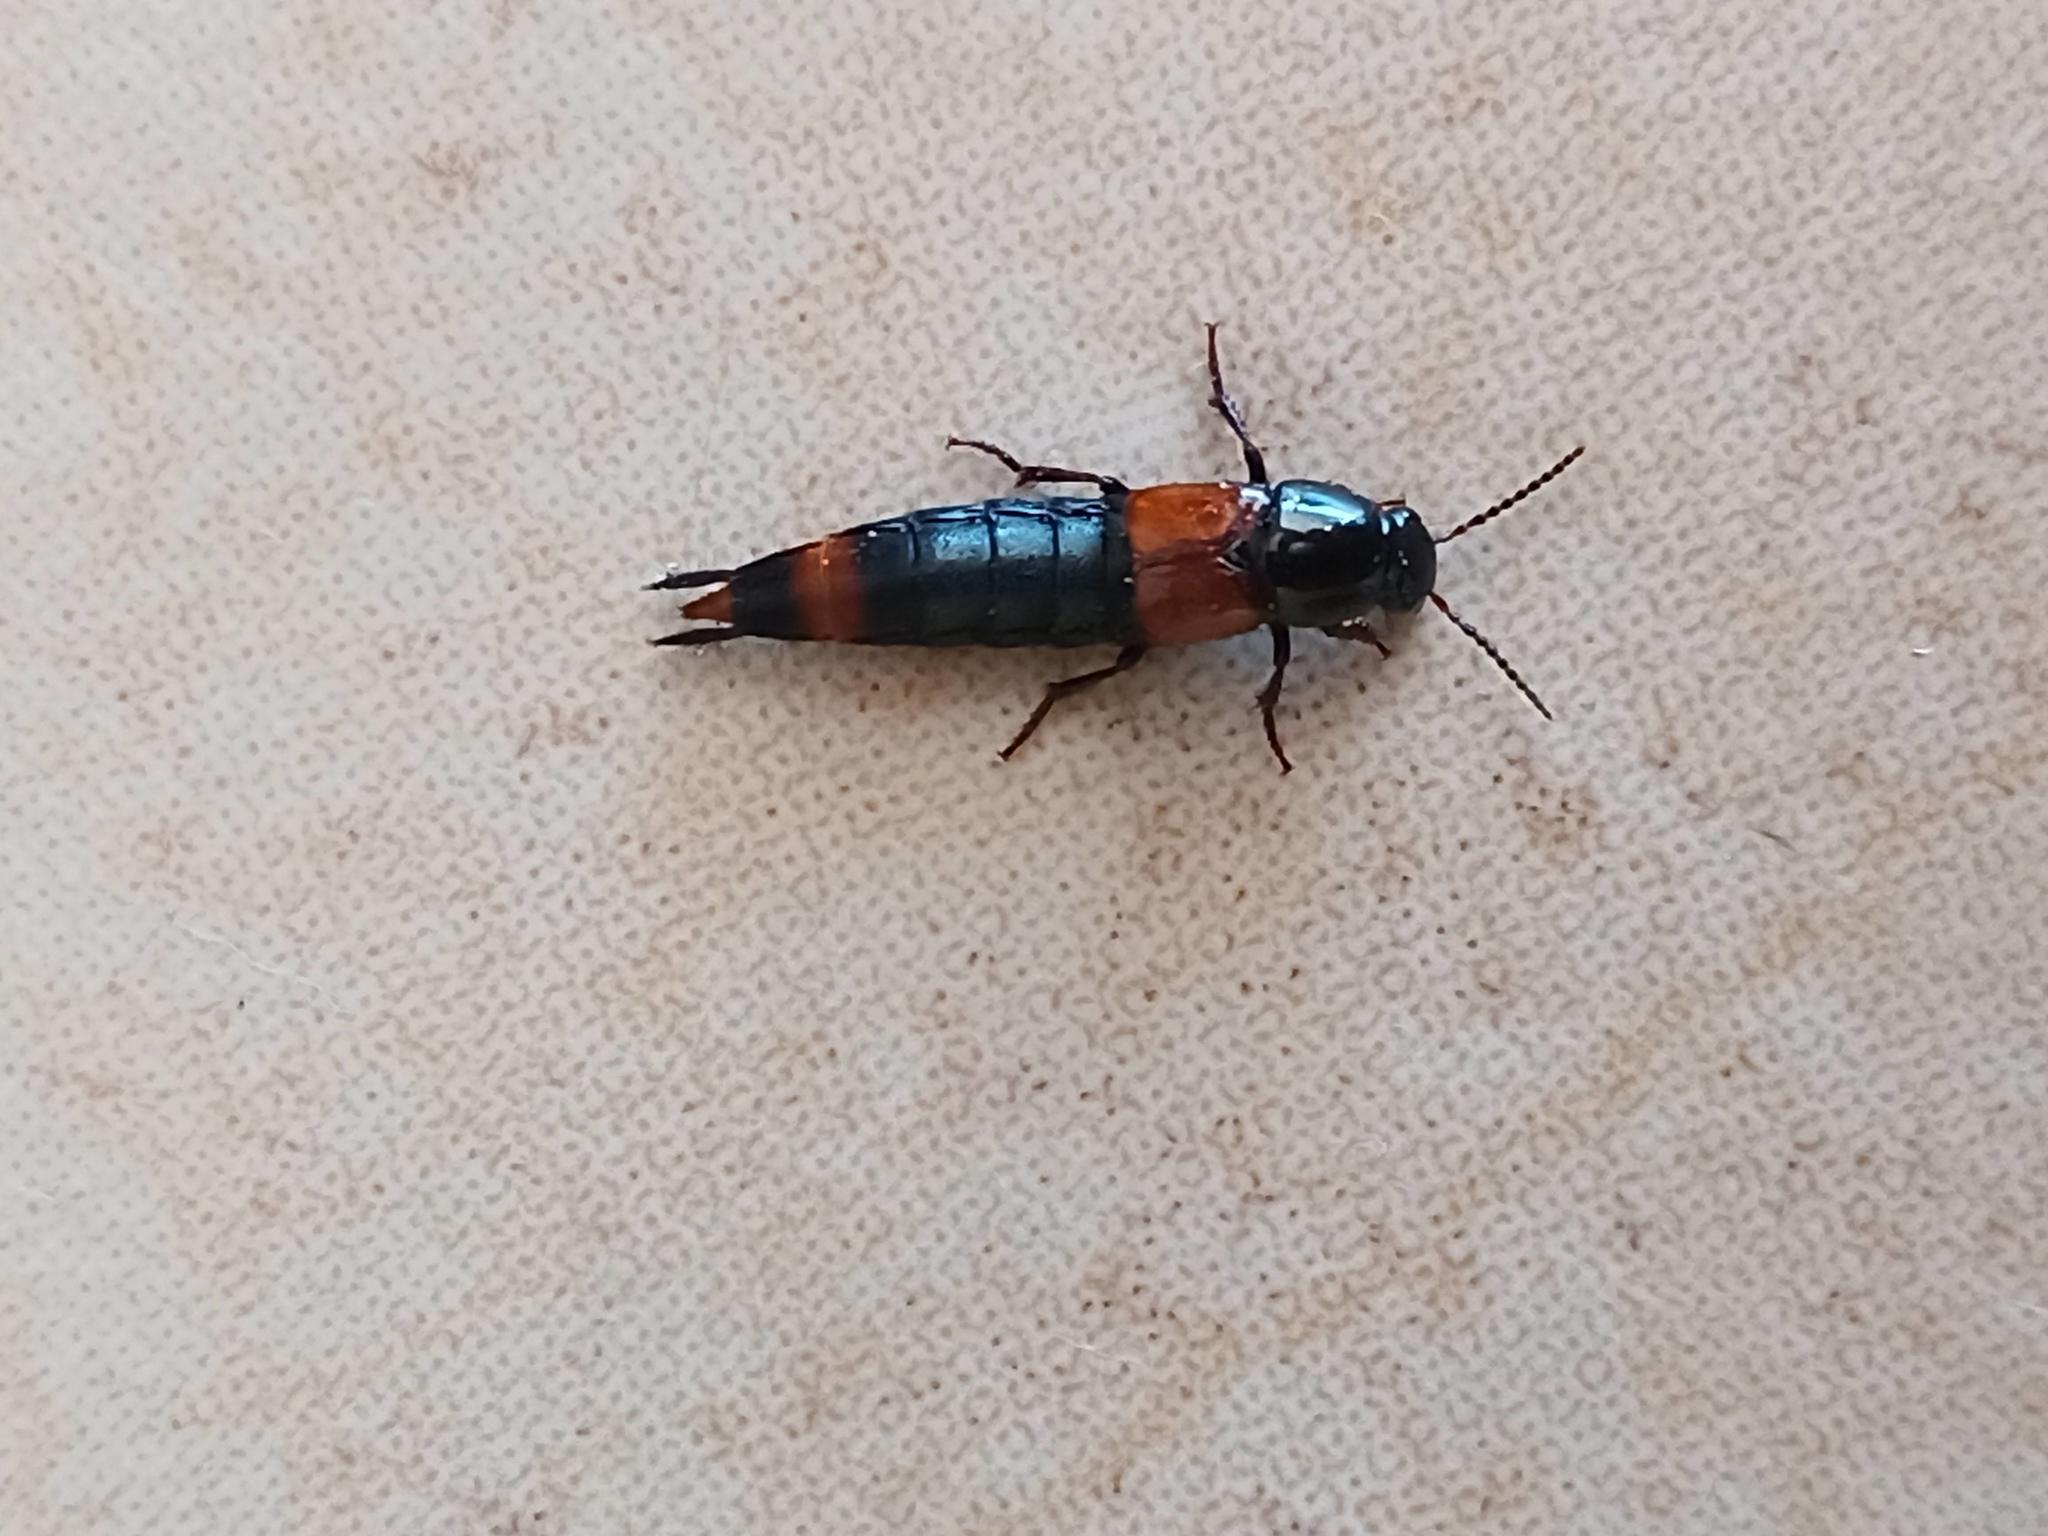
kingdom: Animalia
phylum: Arthropoda
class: Insecta
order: Coleoptera
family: Staphylinidae
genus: Astrapaeus
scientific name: Astrapaeus ulmi
